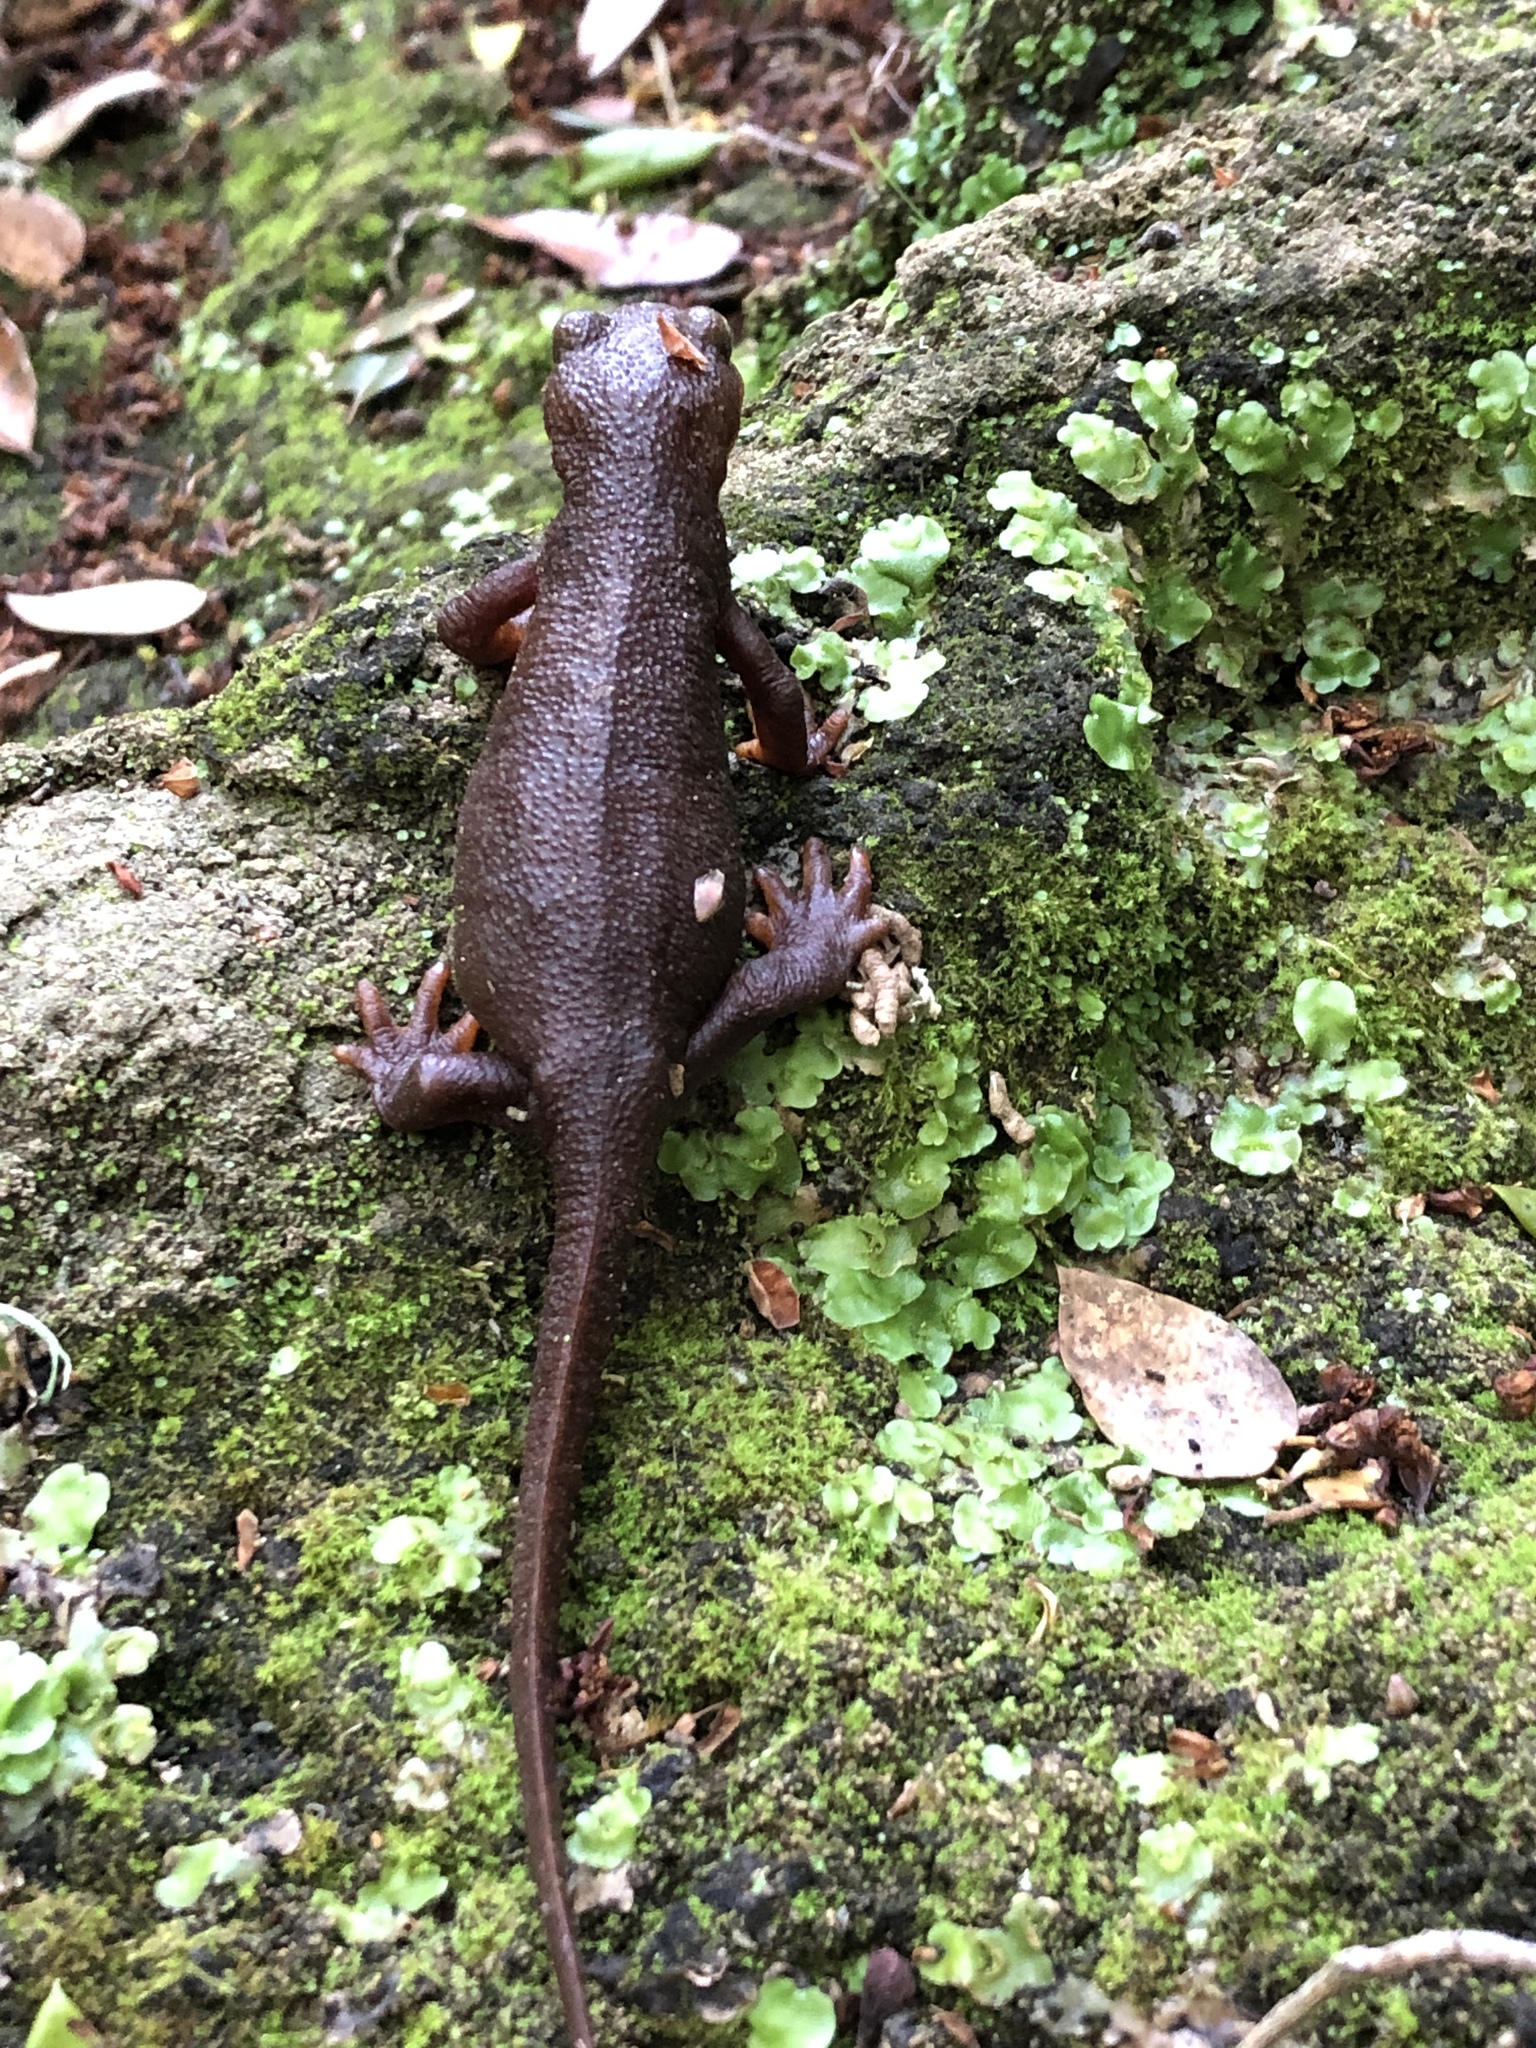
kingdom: Animalia
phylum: Chordata
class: Amphibia
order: Caudata
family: Salamandridae
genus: Taricha
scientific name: Taricha torosa
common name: California newt
